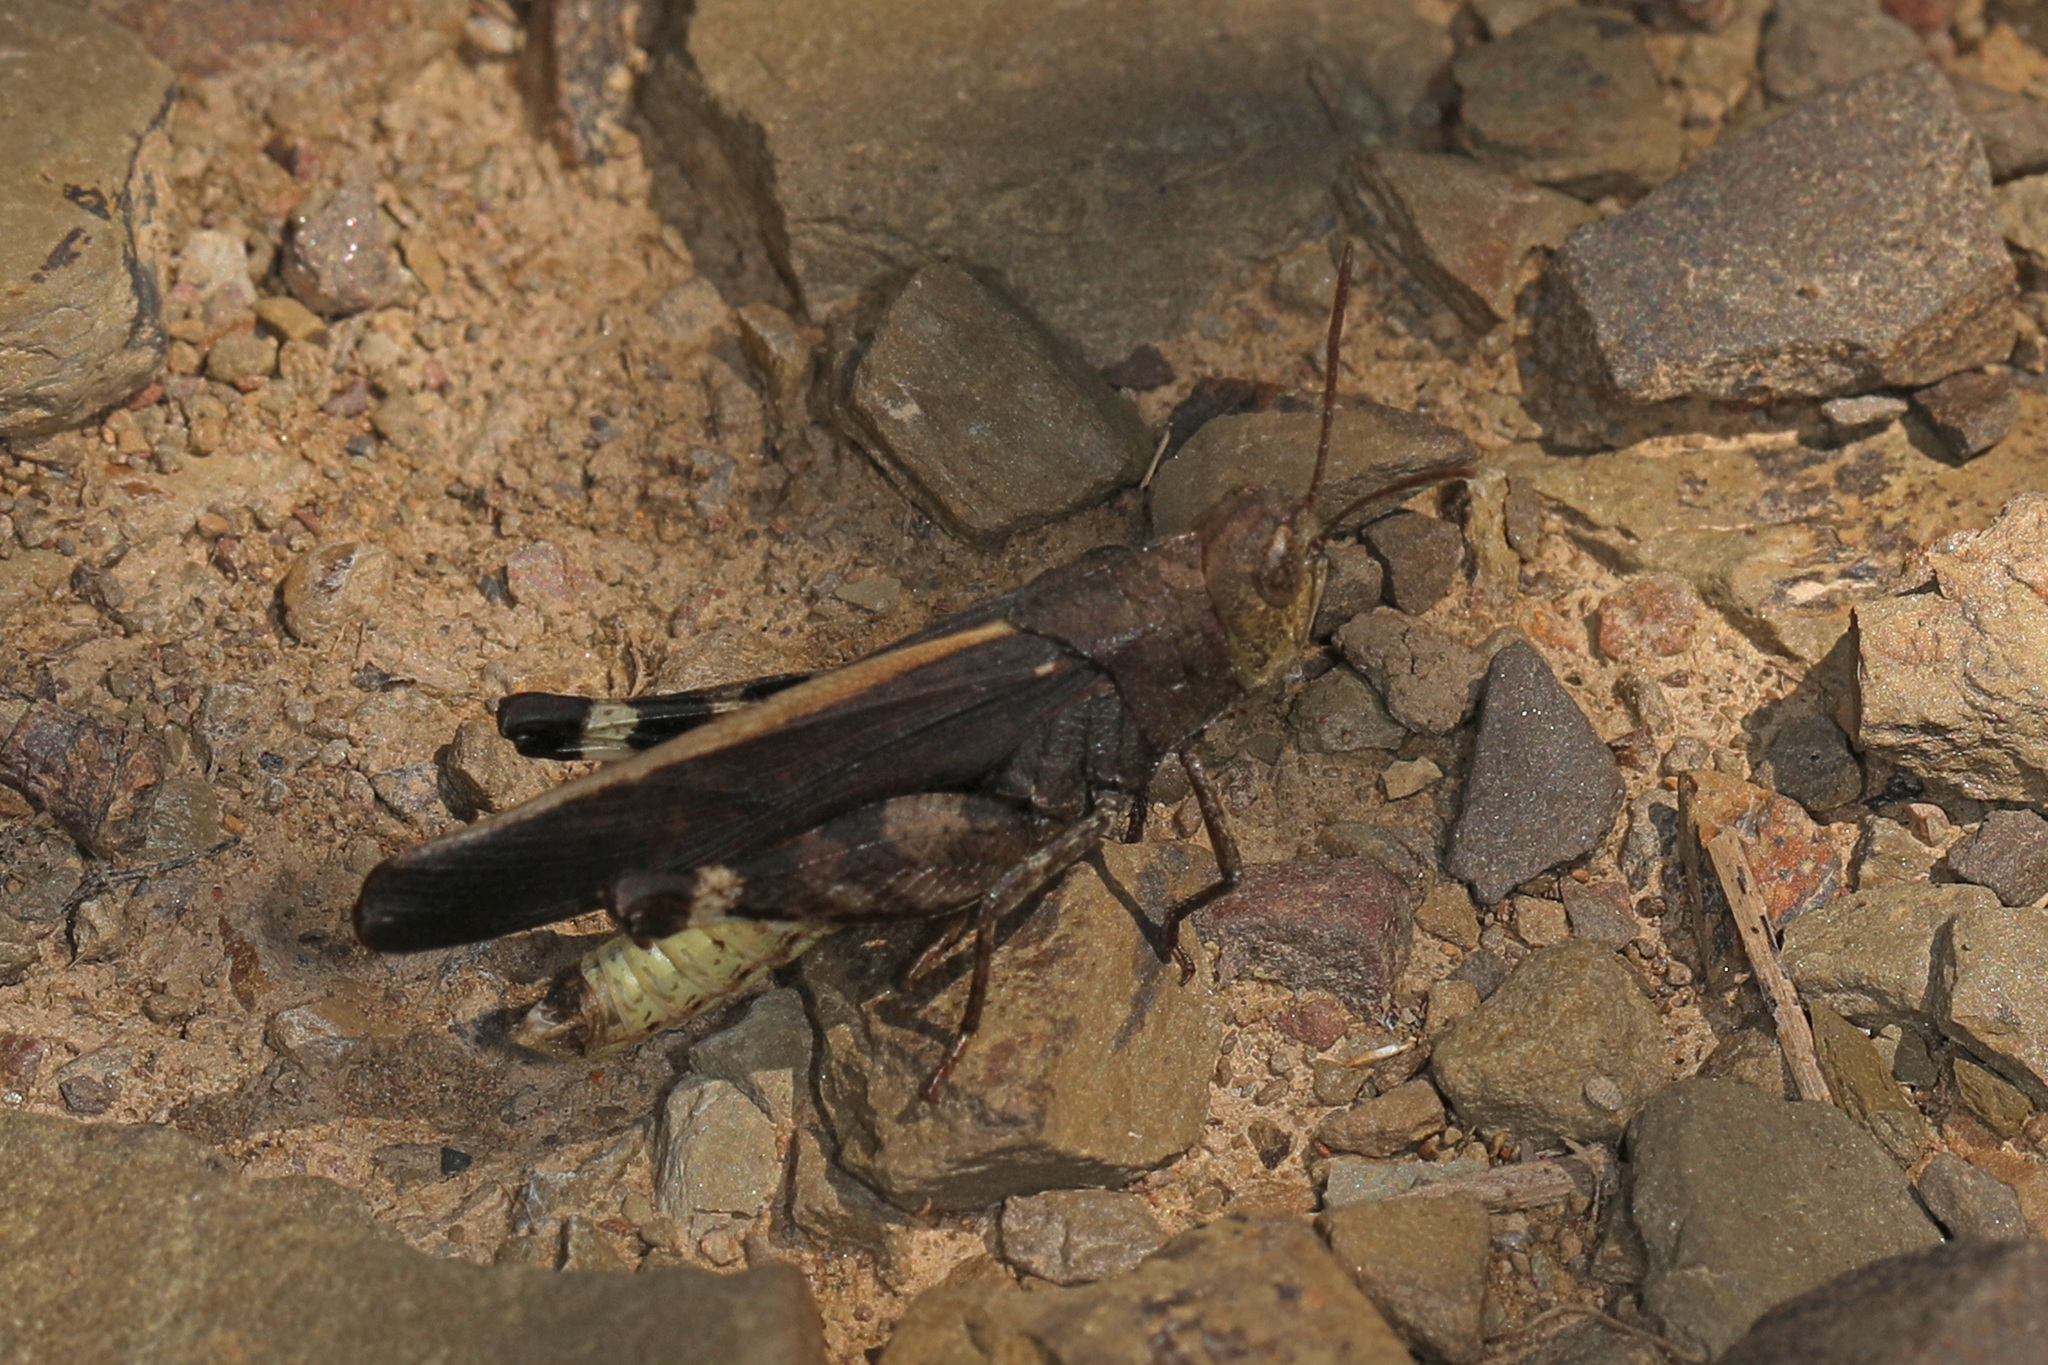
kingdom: Animalia
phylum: Arthropoda
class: Insecta
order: Orthoptera
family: Acrididae
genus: Arphia
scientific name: Arphia sulphurea
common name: Spring yellow-winged locust
